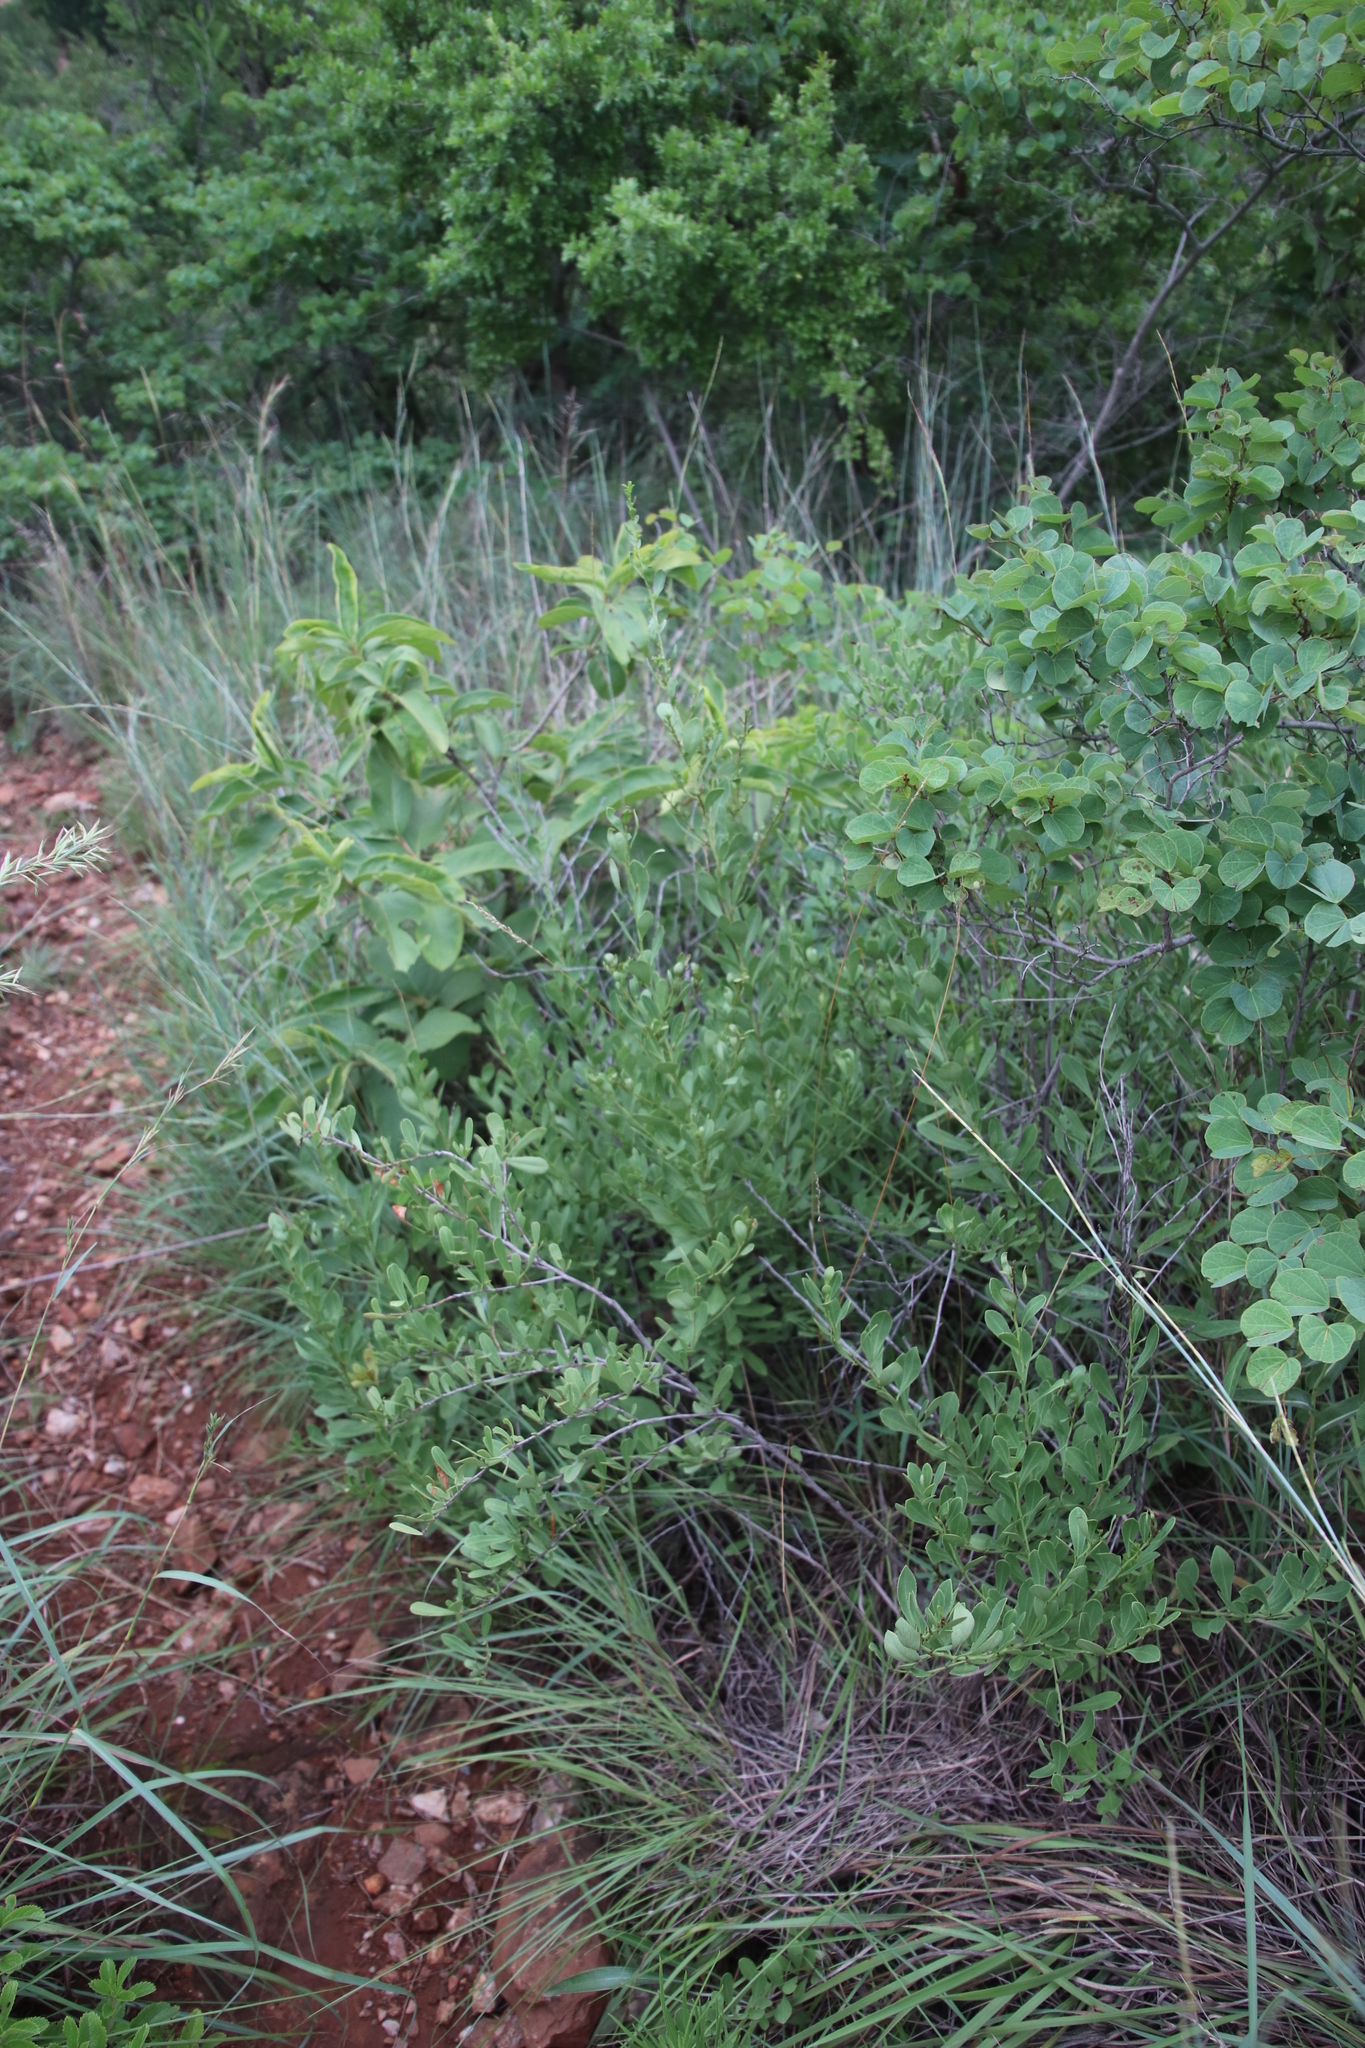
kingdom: Plantae
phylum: Tracheophyta
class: Magnoliopsida
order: Celastrales
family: Celastraceae
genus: Gymnosporia
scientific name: Gymnosporia heterophylla
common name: Angle-stem spikethorn
